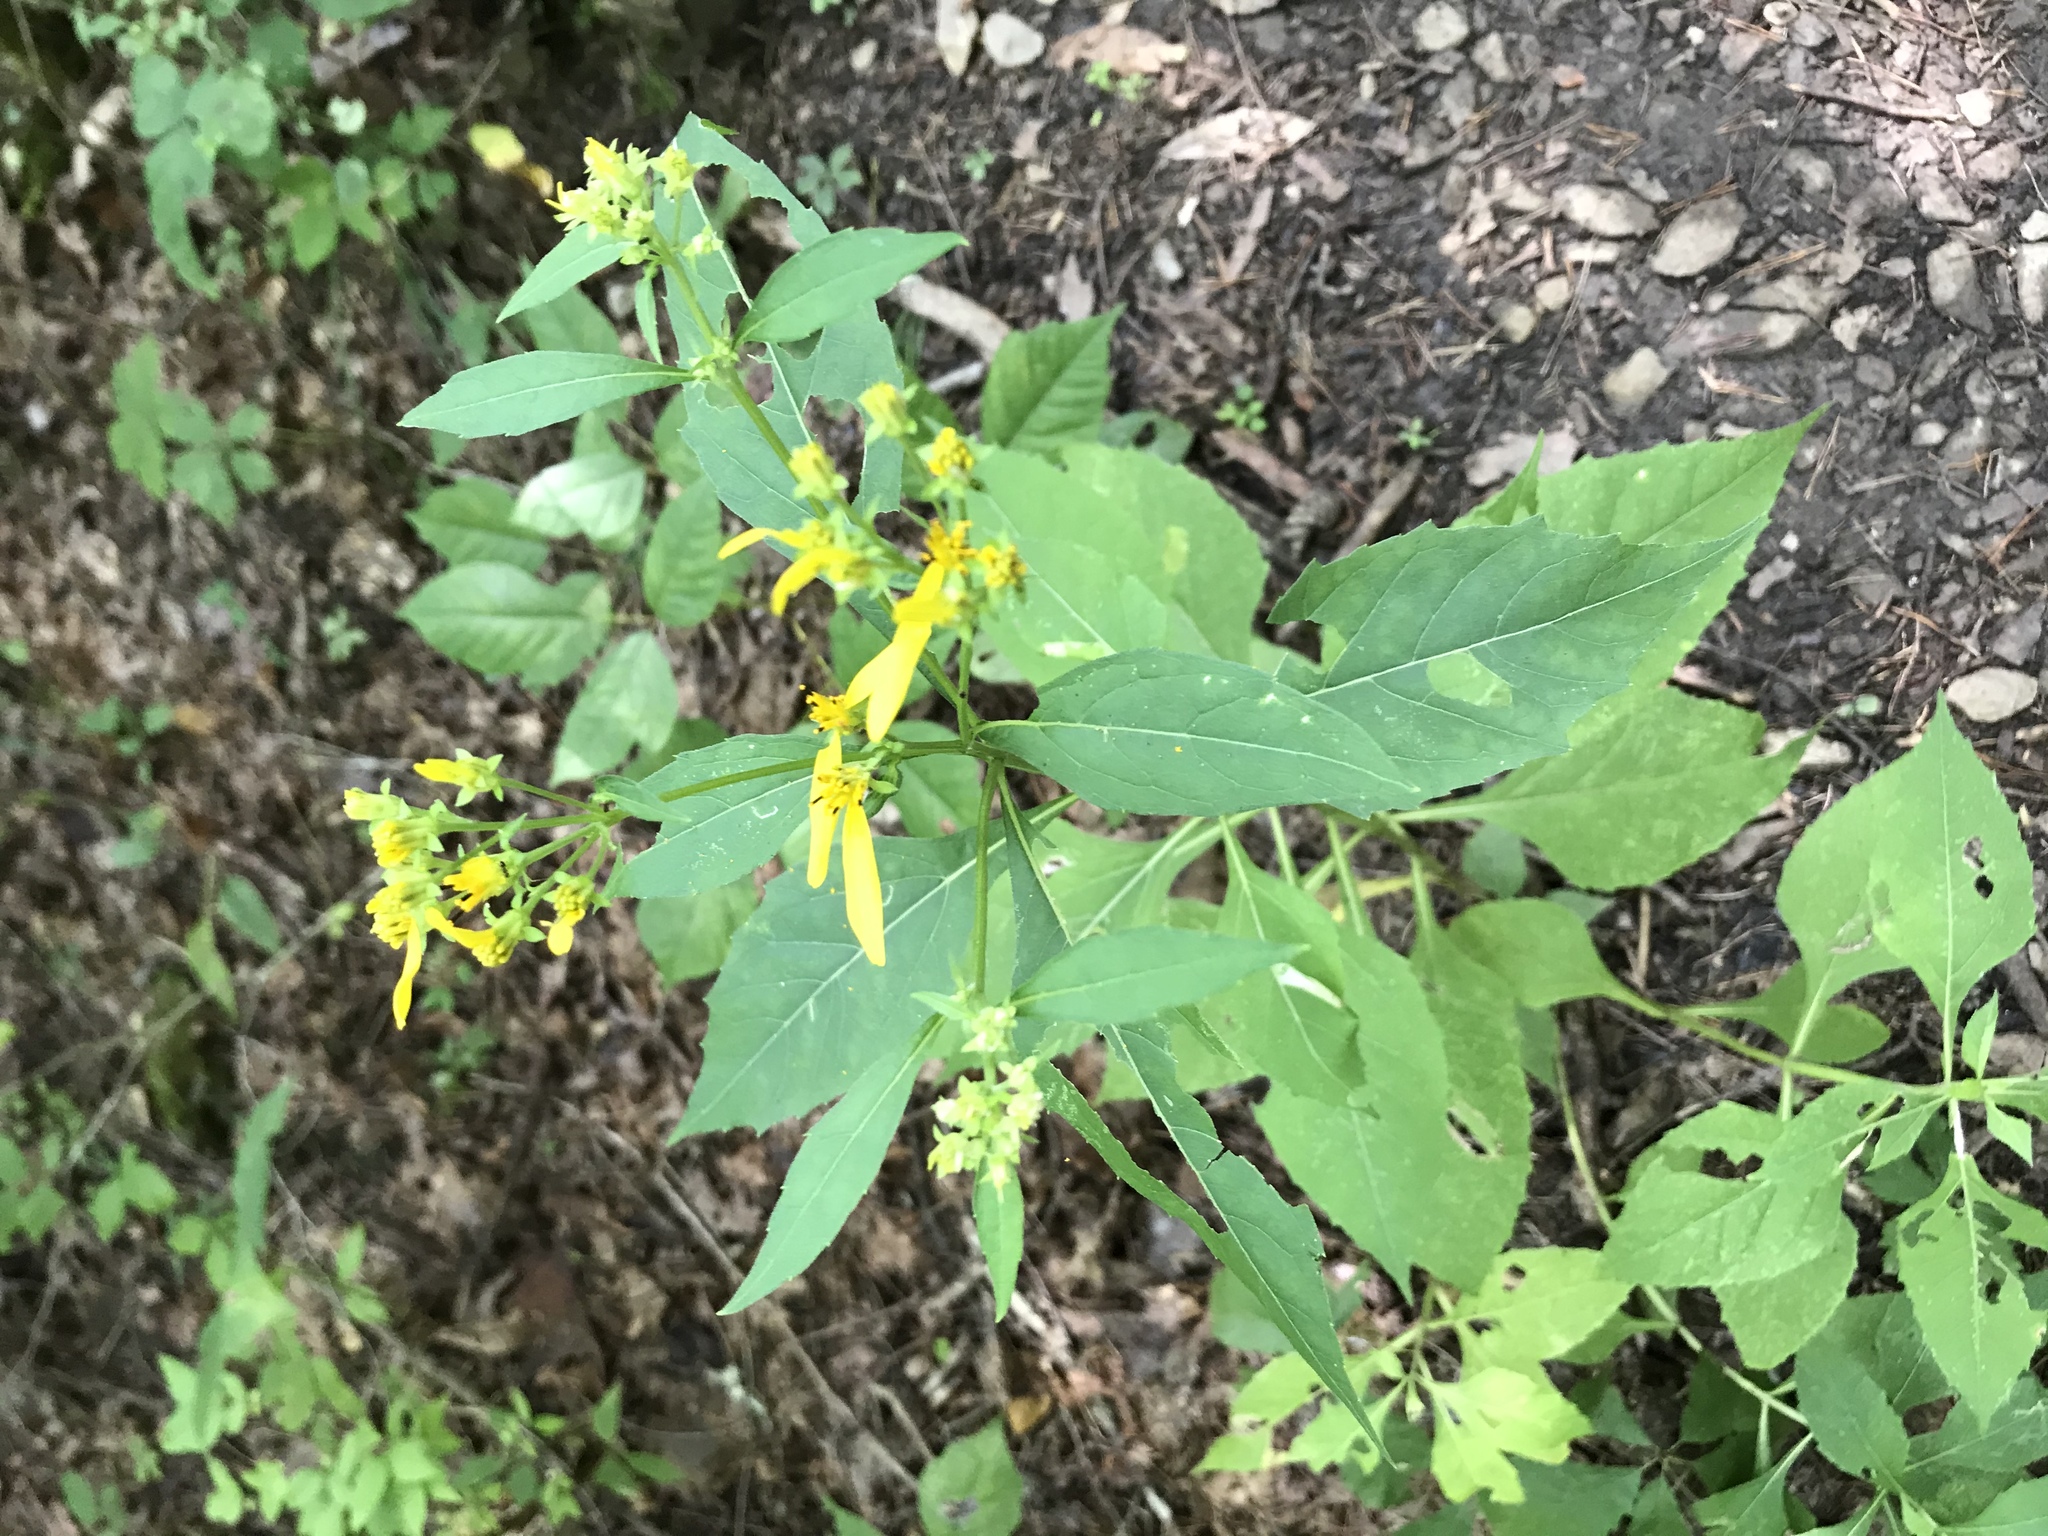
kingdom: Plantae
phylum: Tracheophyta
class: Magnoliopsida
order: Asterales
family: Asteraceae
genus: Verbesina
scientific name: Verbesina occidentalis
